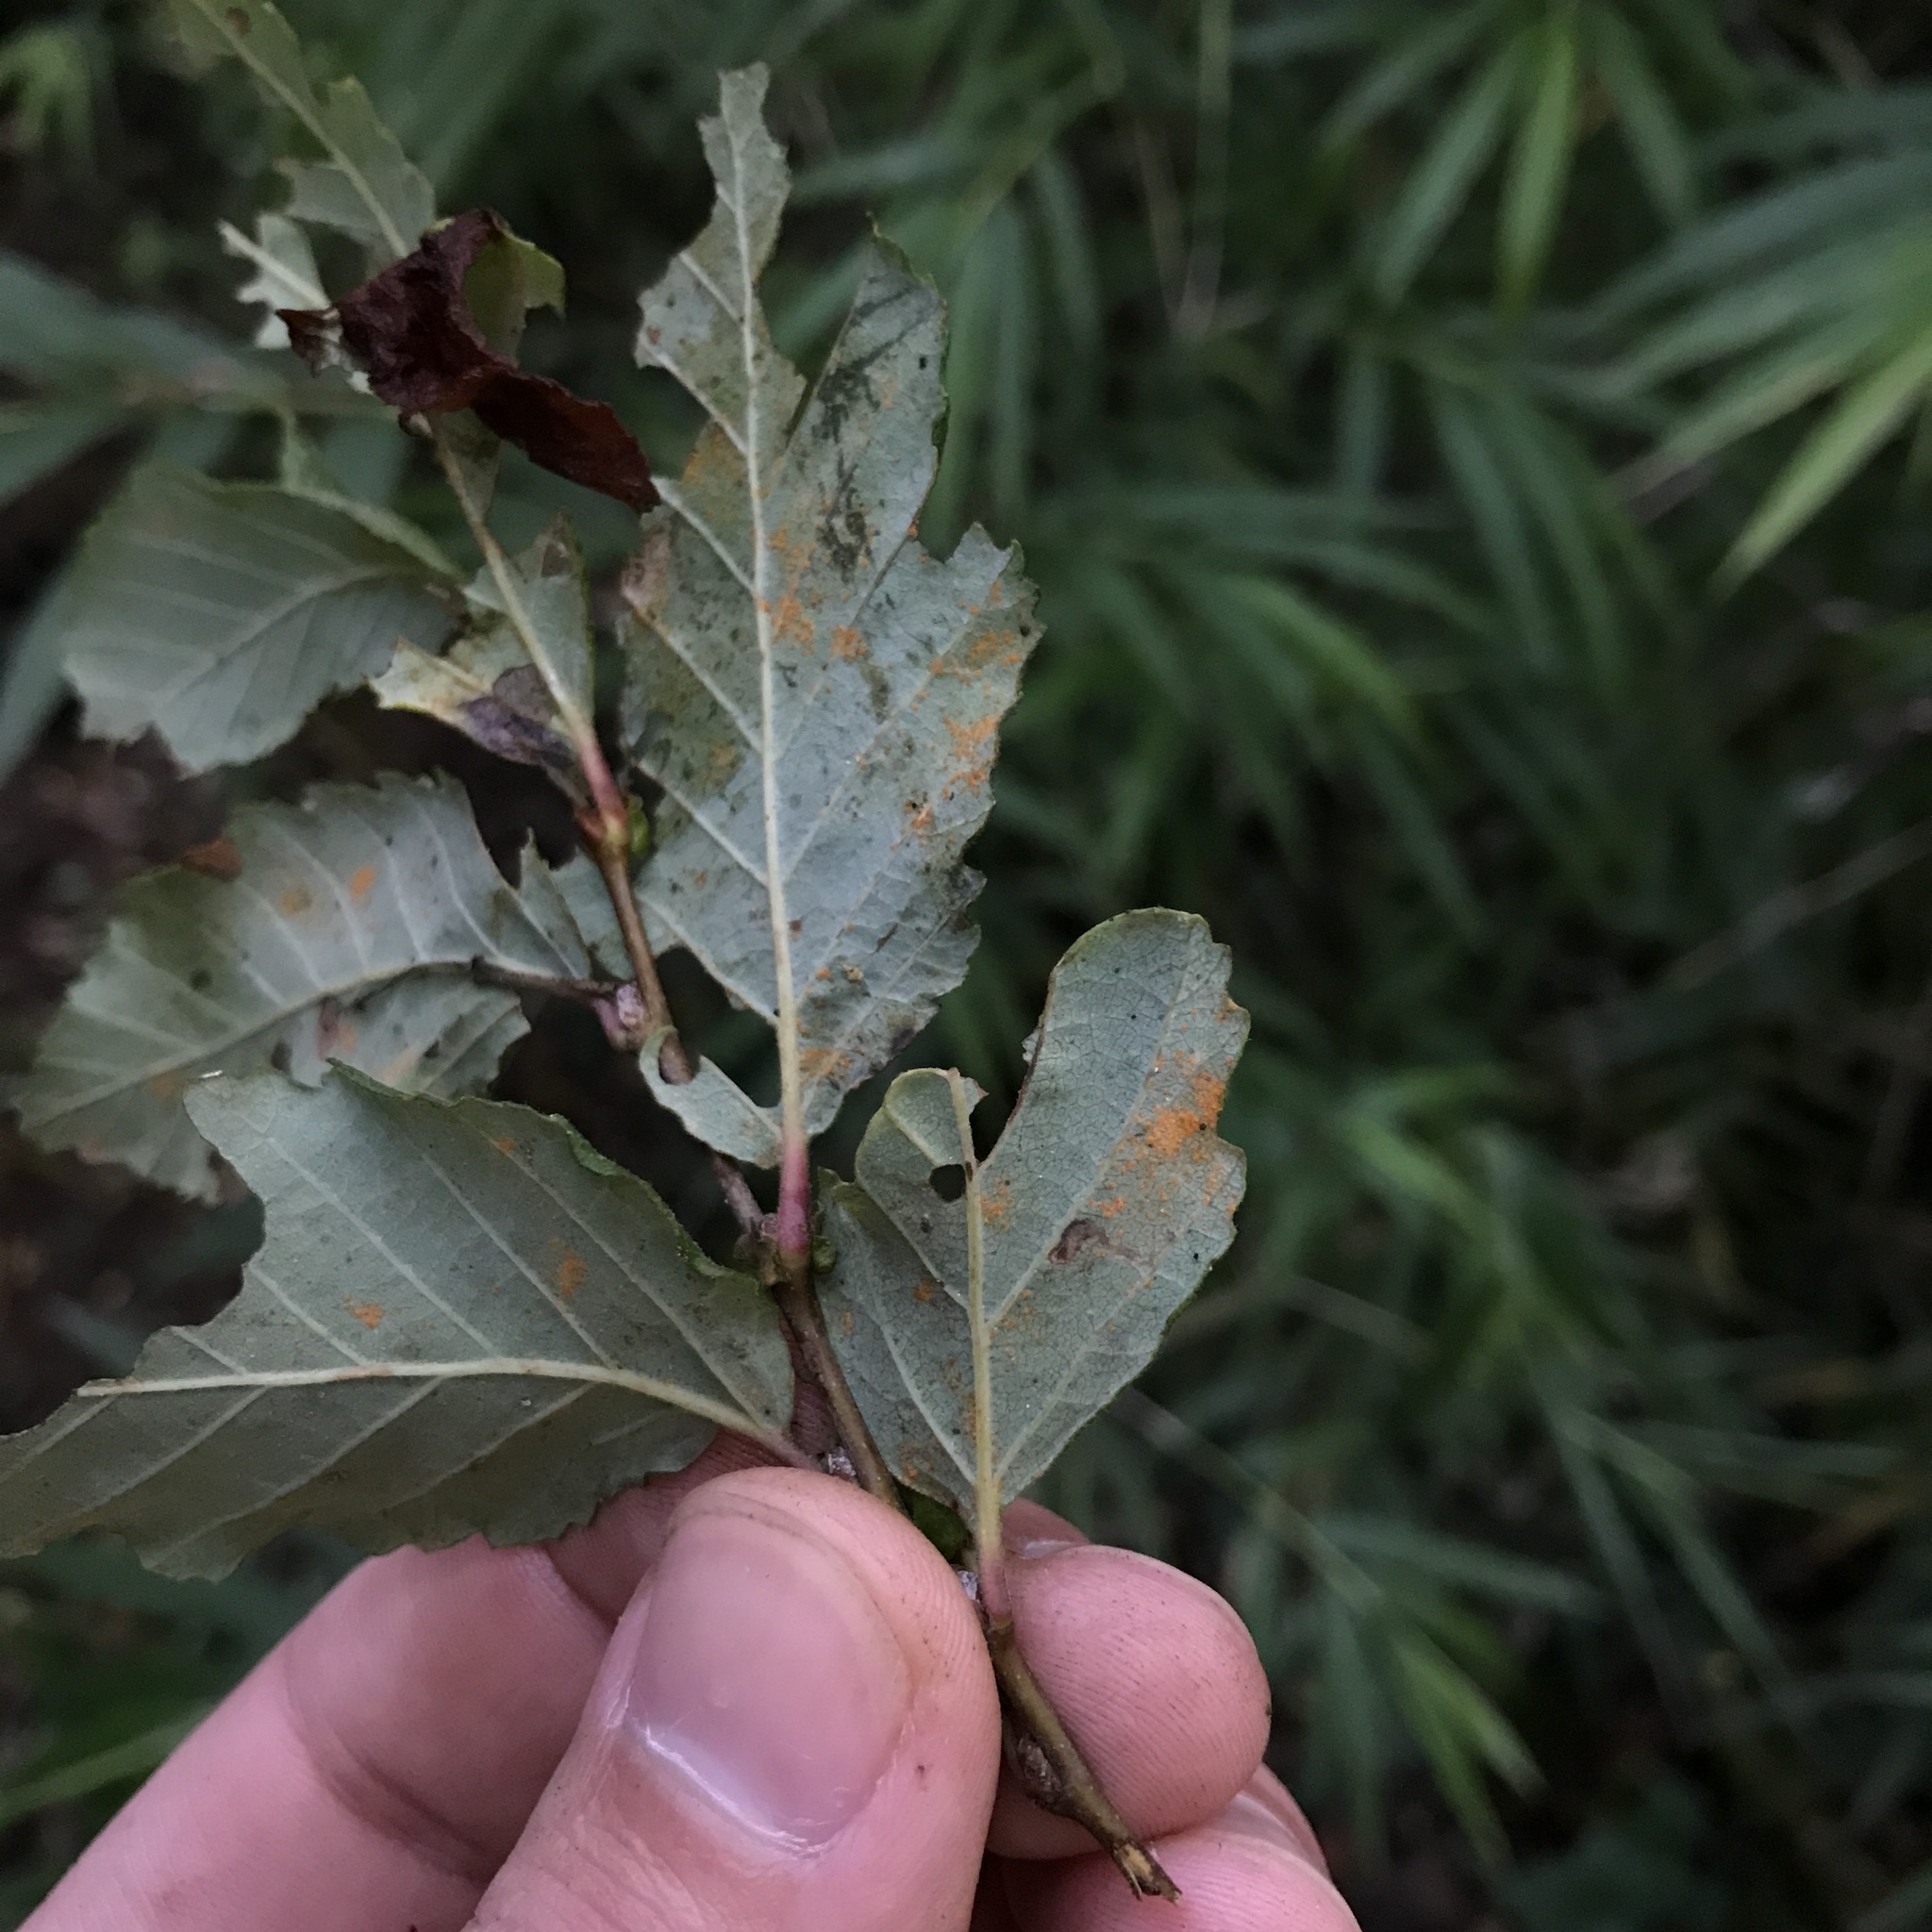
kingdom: Fungi
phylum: Basidiomycota
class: Pucciniomycetes
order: Pucciniales
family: Mikronegeriaceae
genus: Mikronegeria
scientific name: Mikronegeria fagi
